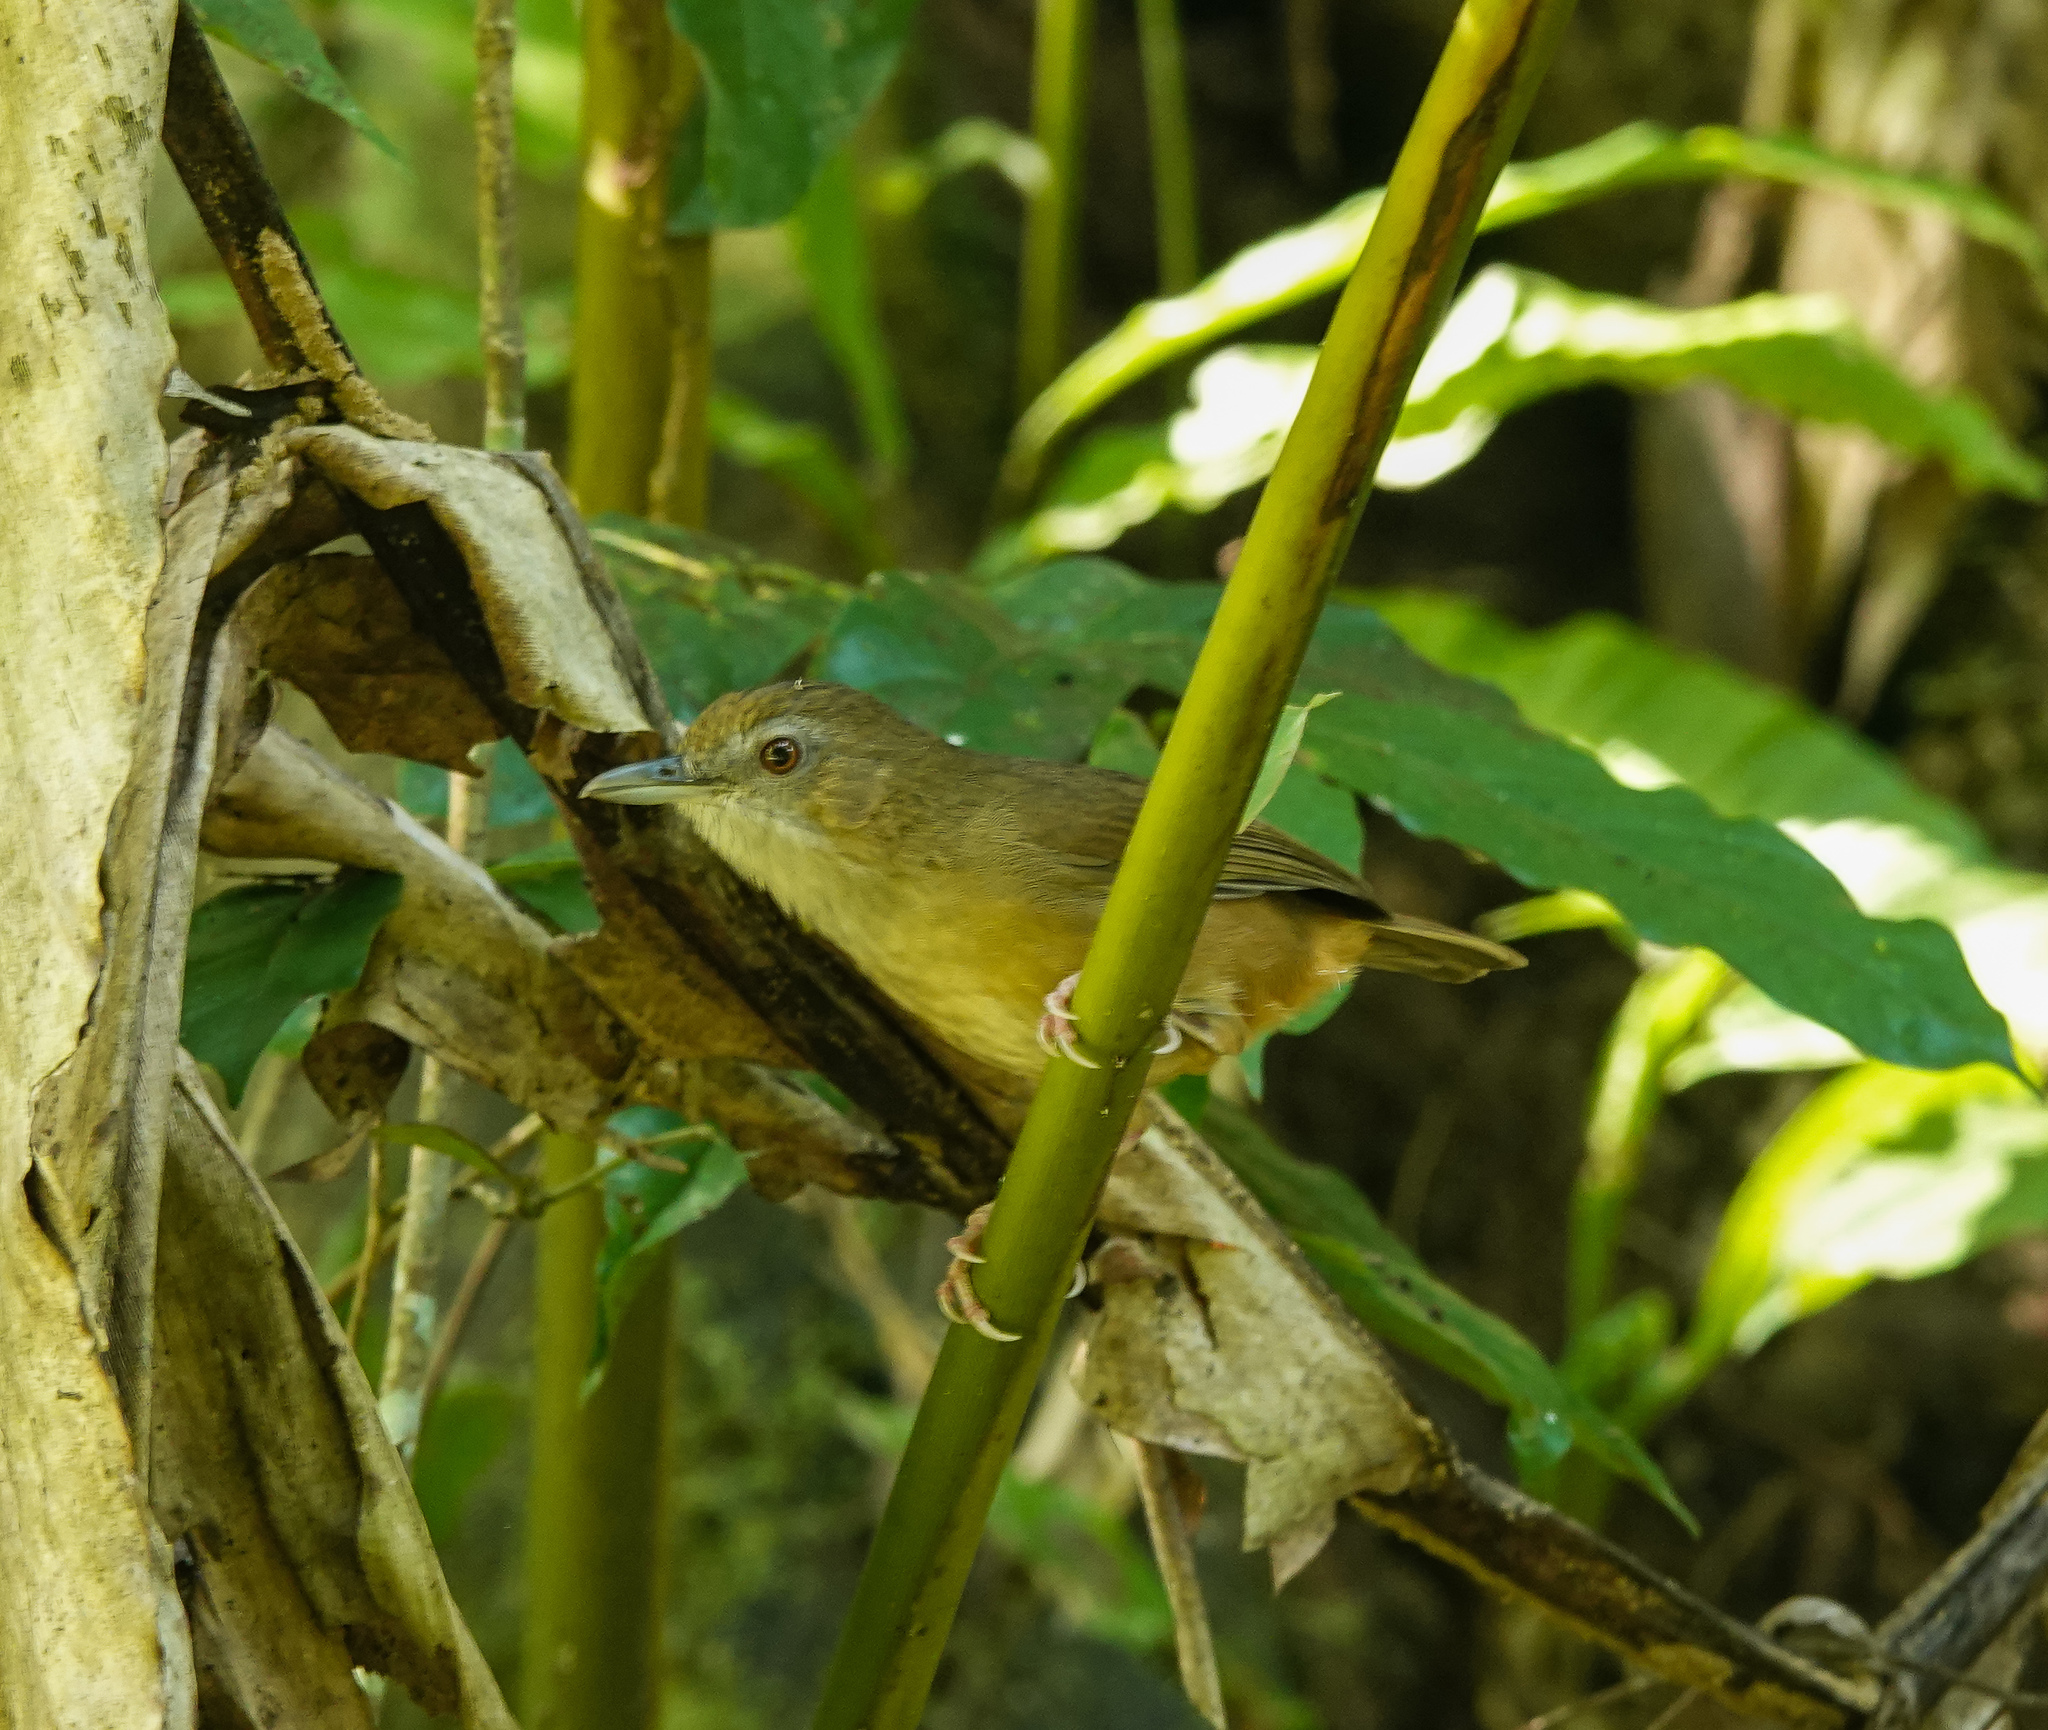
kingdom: Animalia
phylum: Chordata
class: Aves
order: Passeriformes
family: Pellorneidae
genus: Malacocincla
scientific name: Malacocincla abbotti
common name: Abbott's babbler
